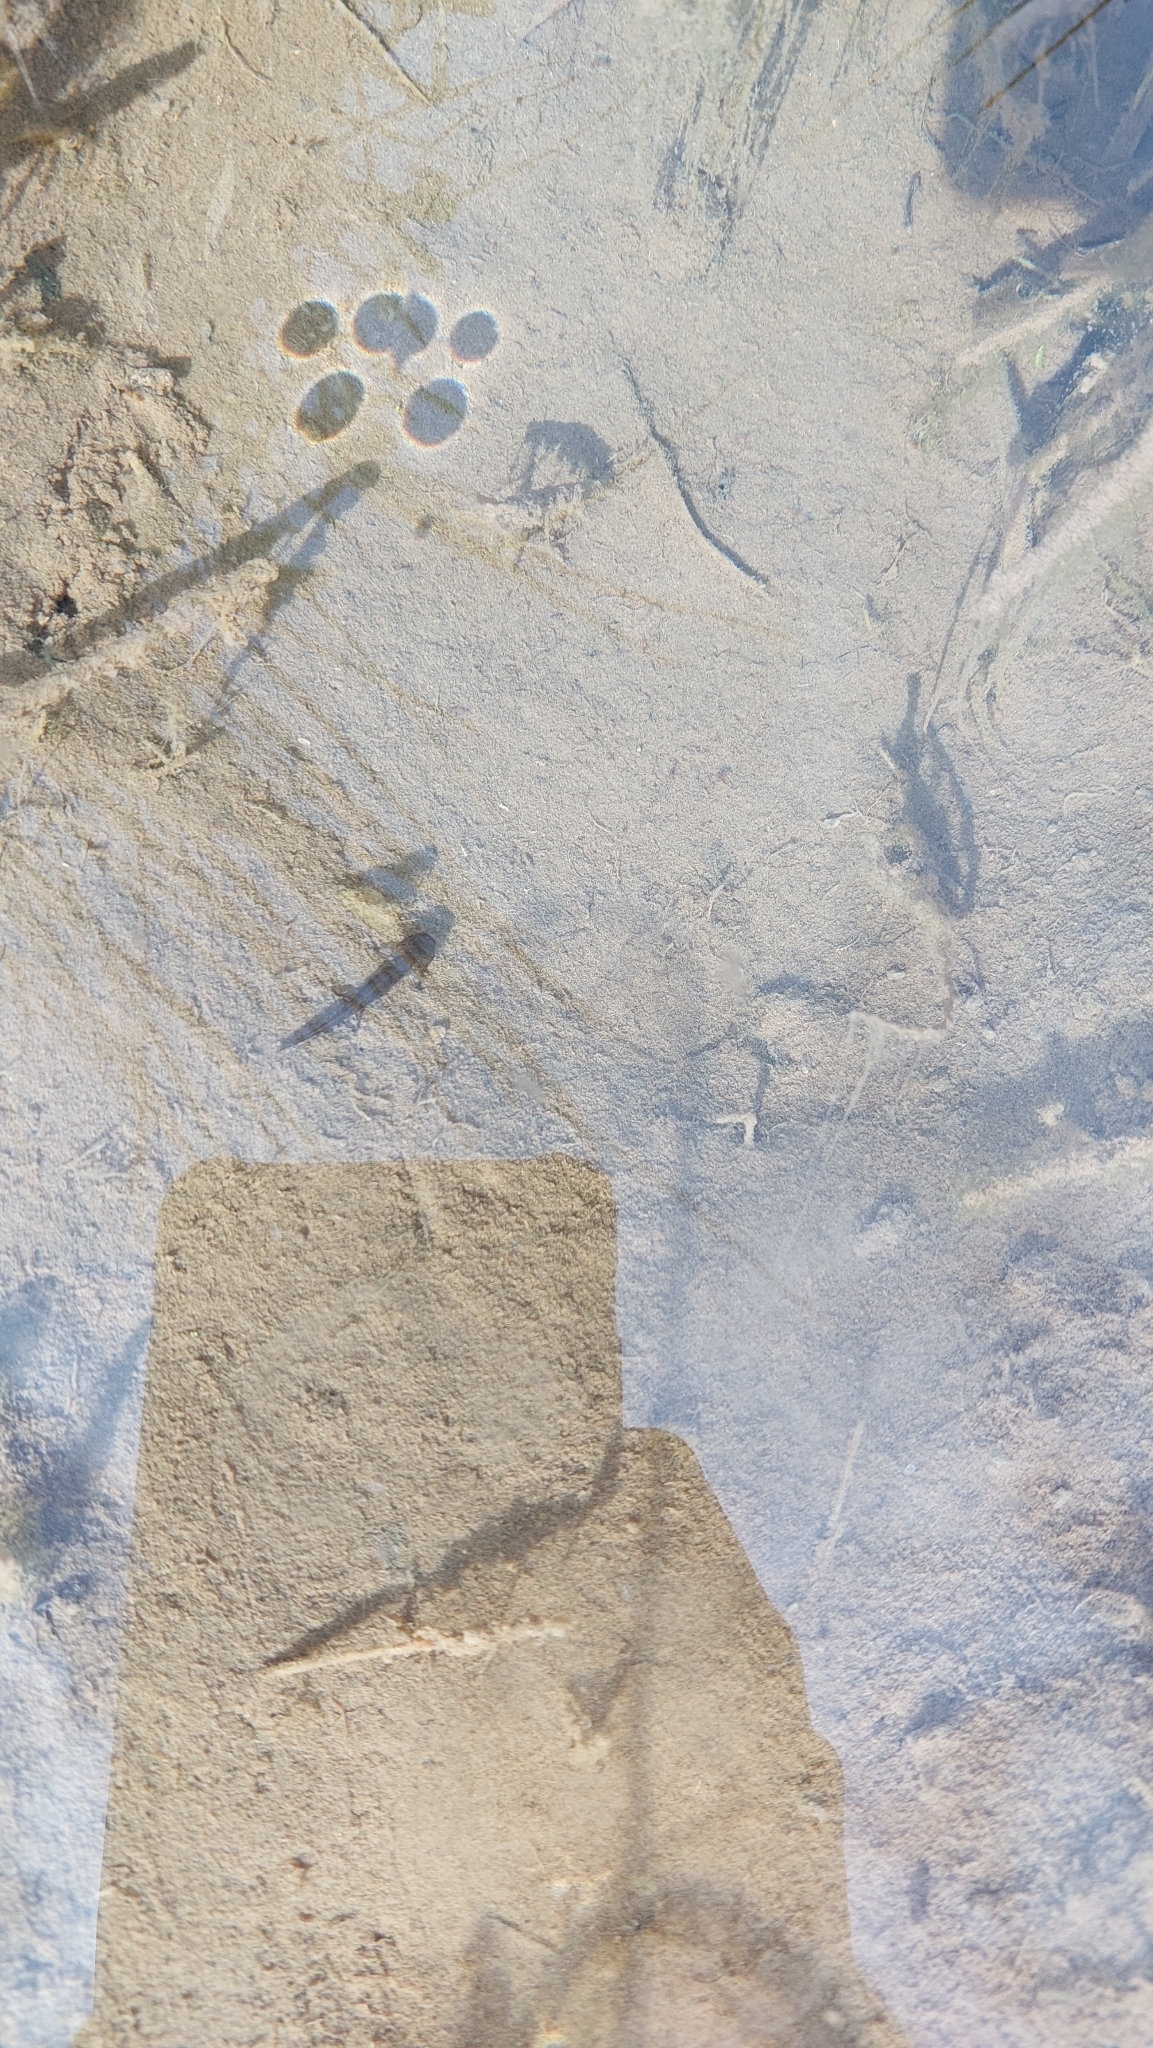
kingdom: Animalia
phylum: Chordata
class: Amphibia
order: Caudata
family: Salamandridae
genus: Salamandra
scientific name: Salamandra salamandra
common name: Fire salamander
